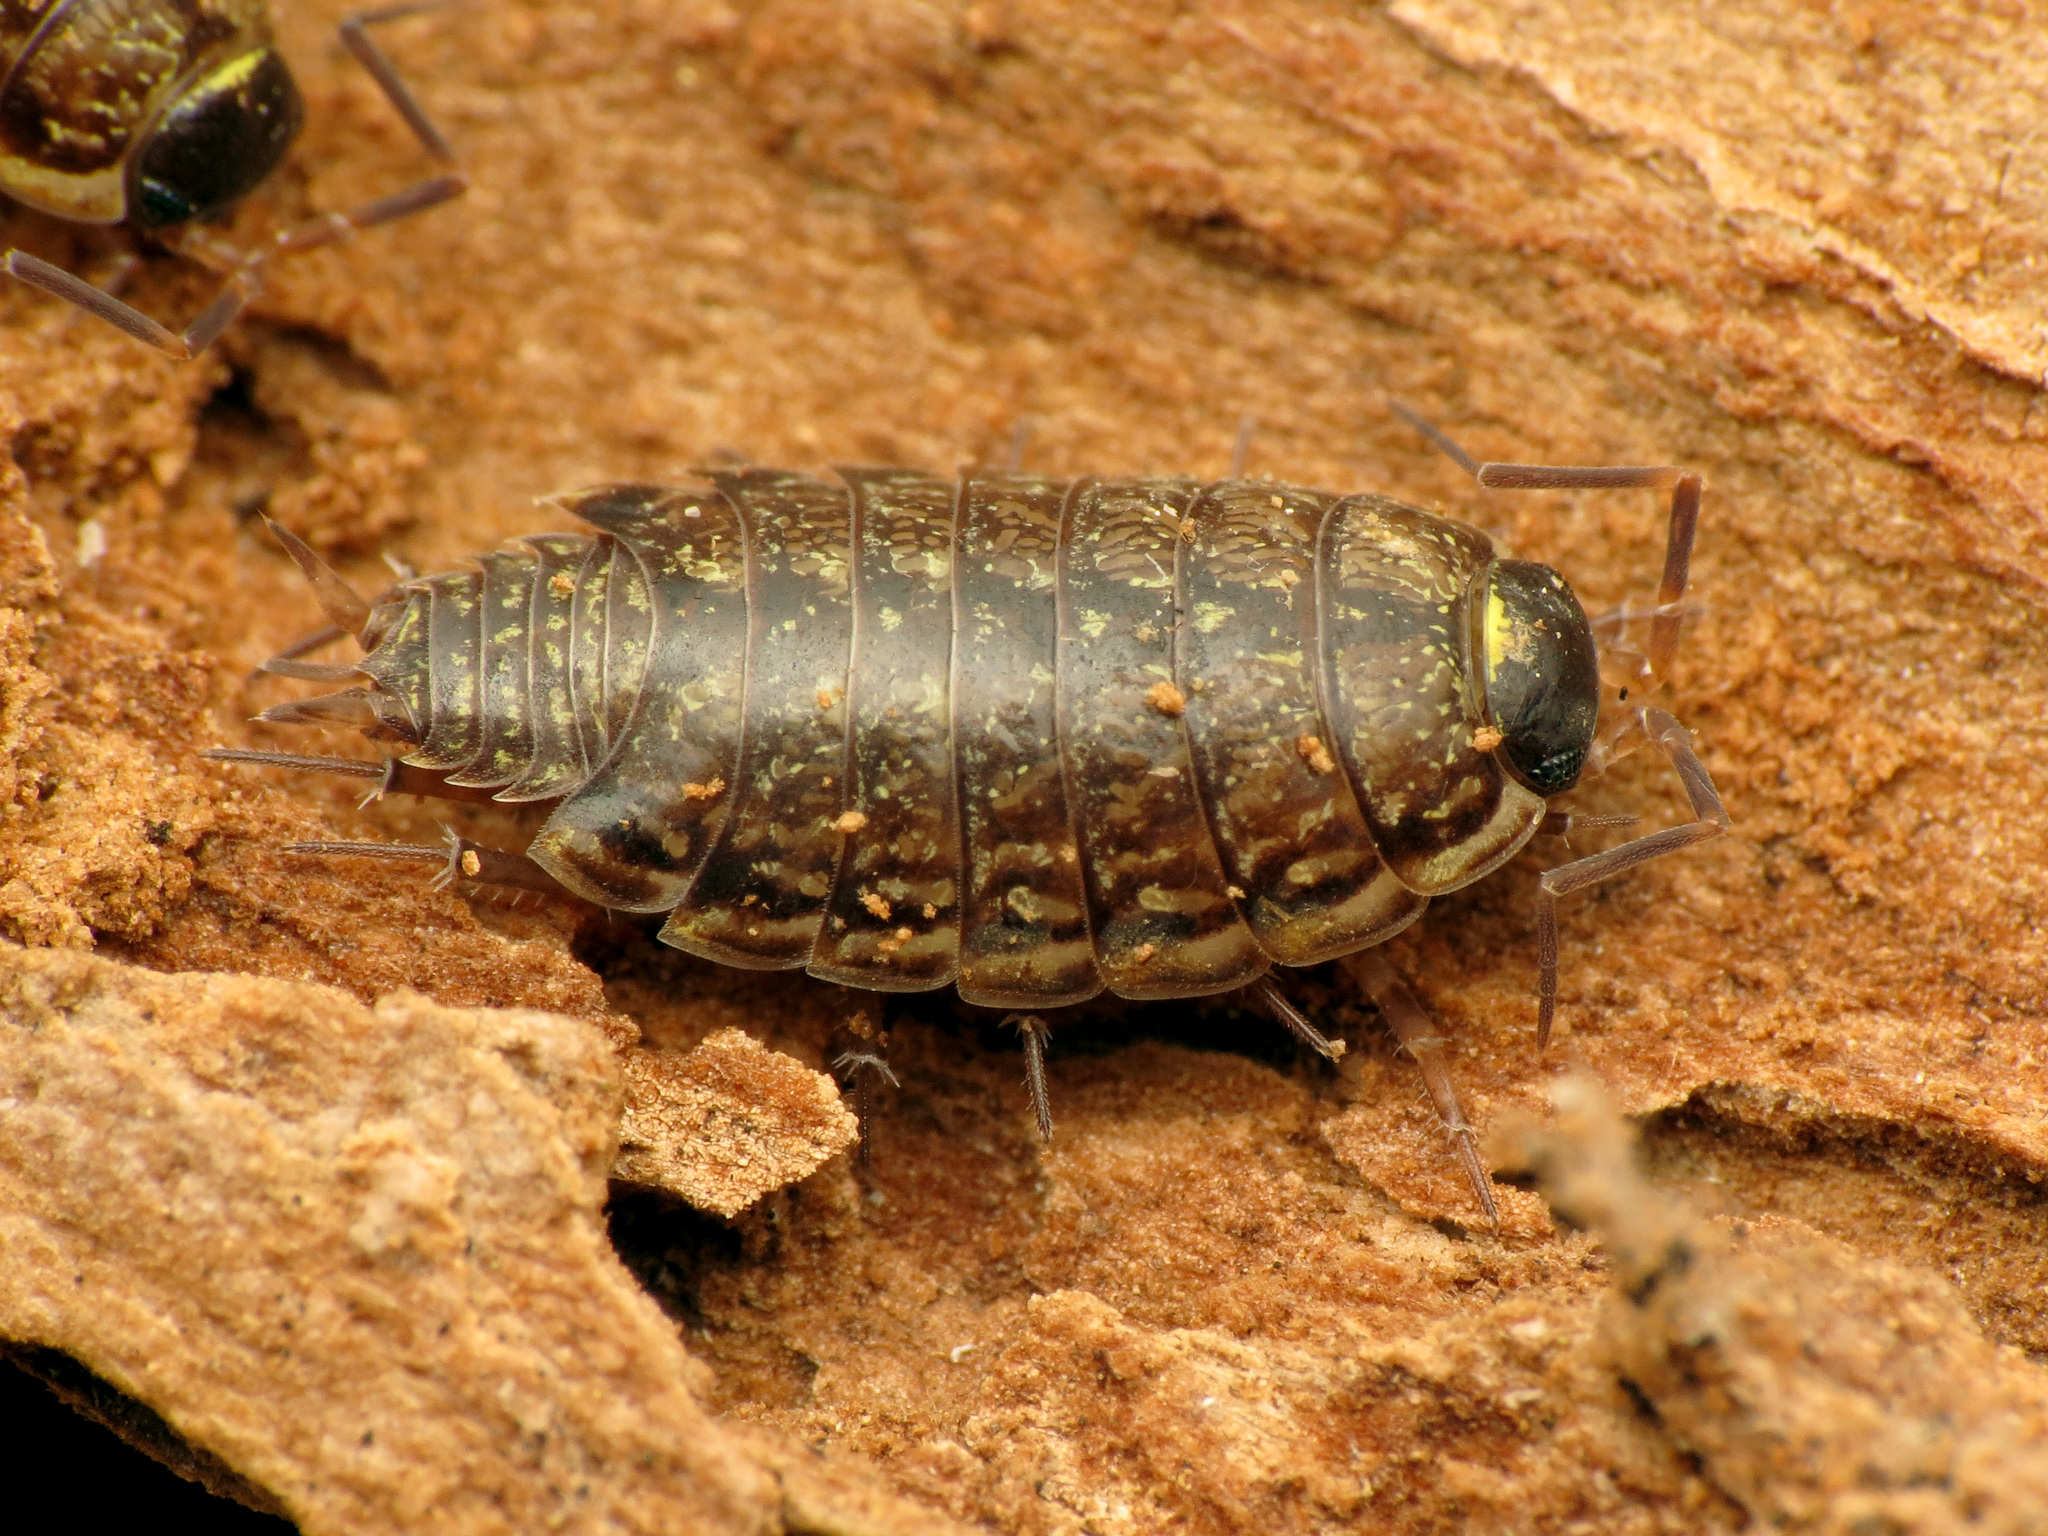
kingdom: Animalia
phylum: Arthropoda
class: Malacostraca
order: Isopoda
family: Philosciidae
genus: Philoscia
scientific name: Philoscia muscorum
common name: Common striped woodlouse
